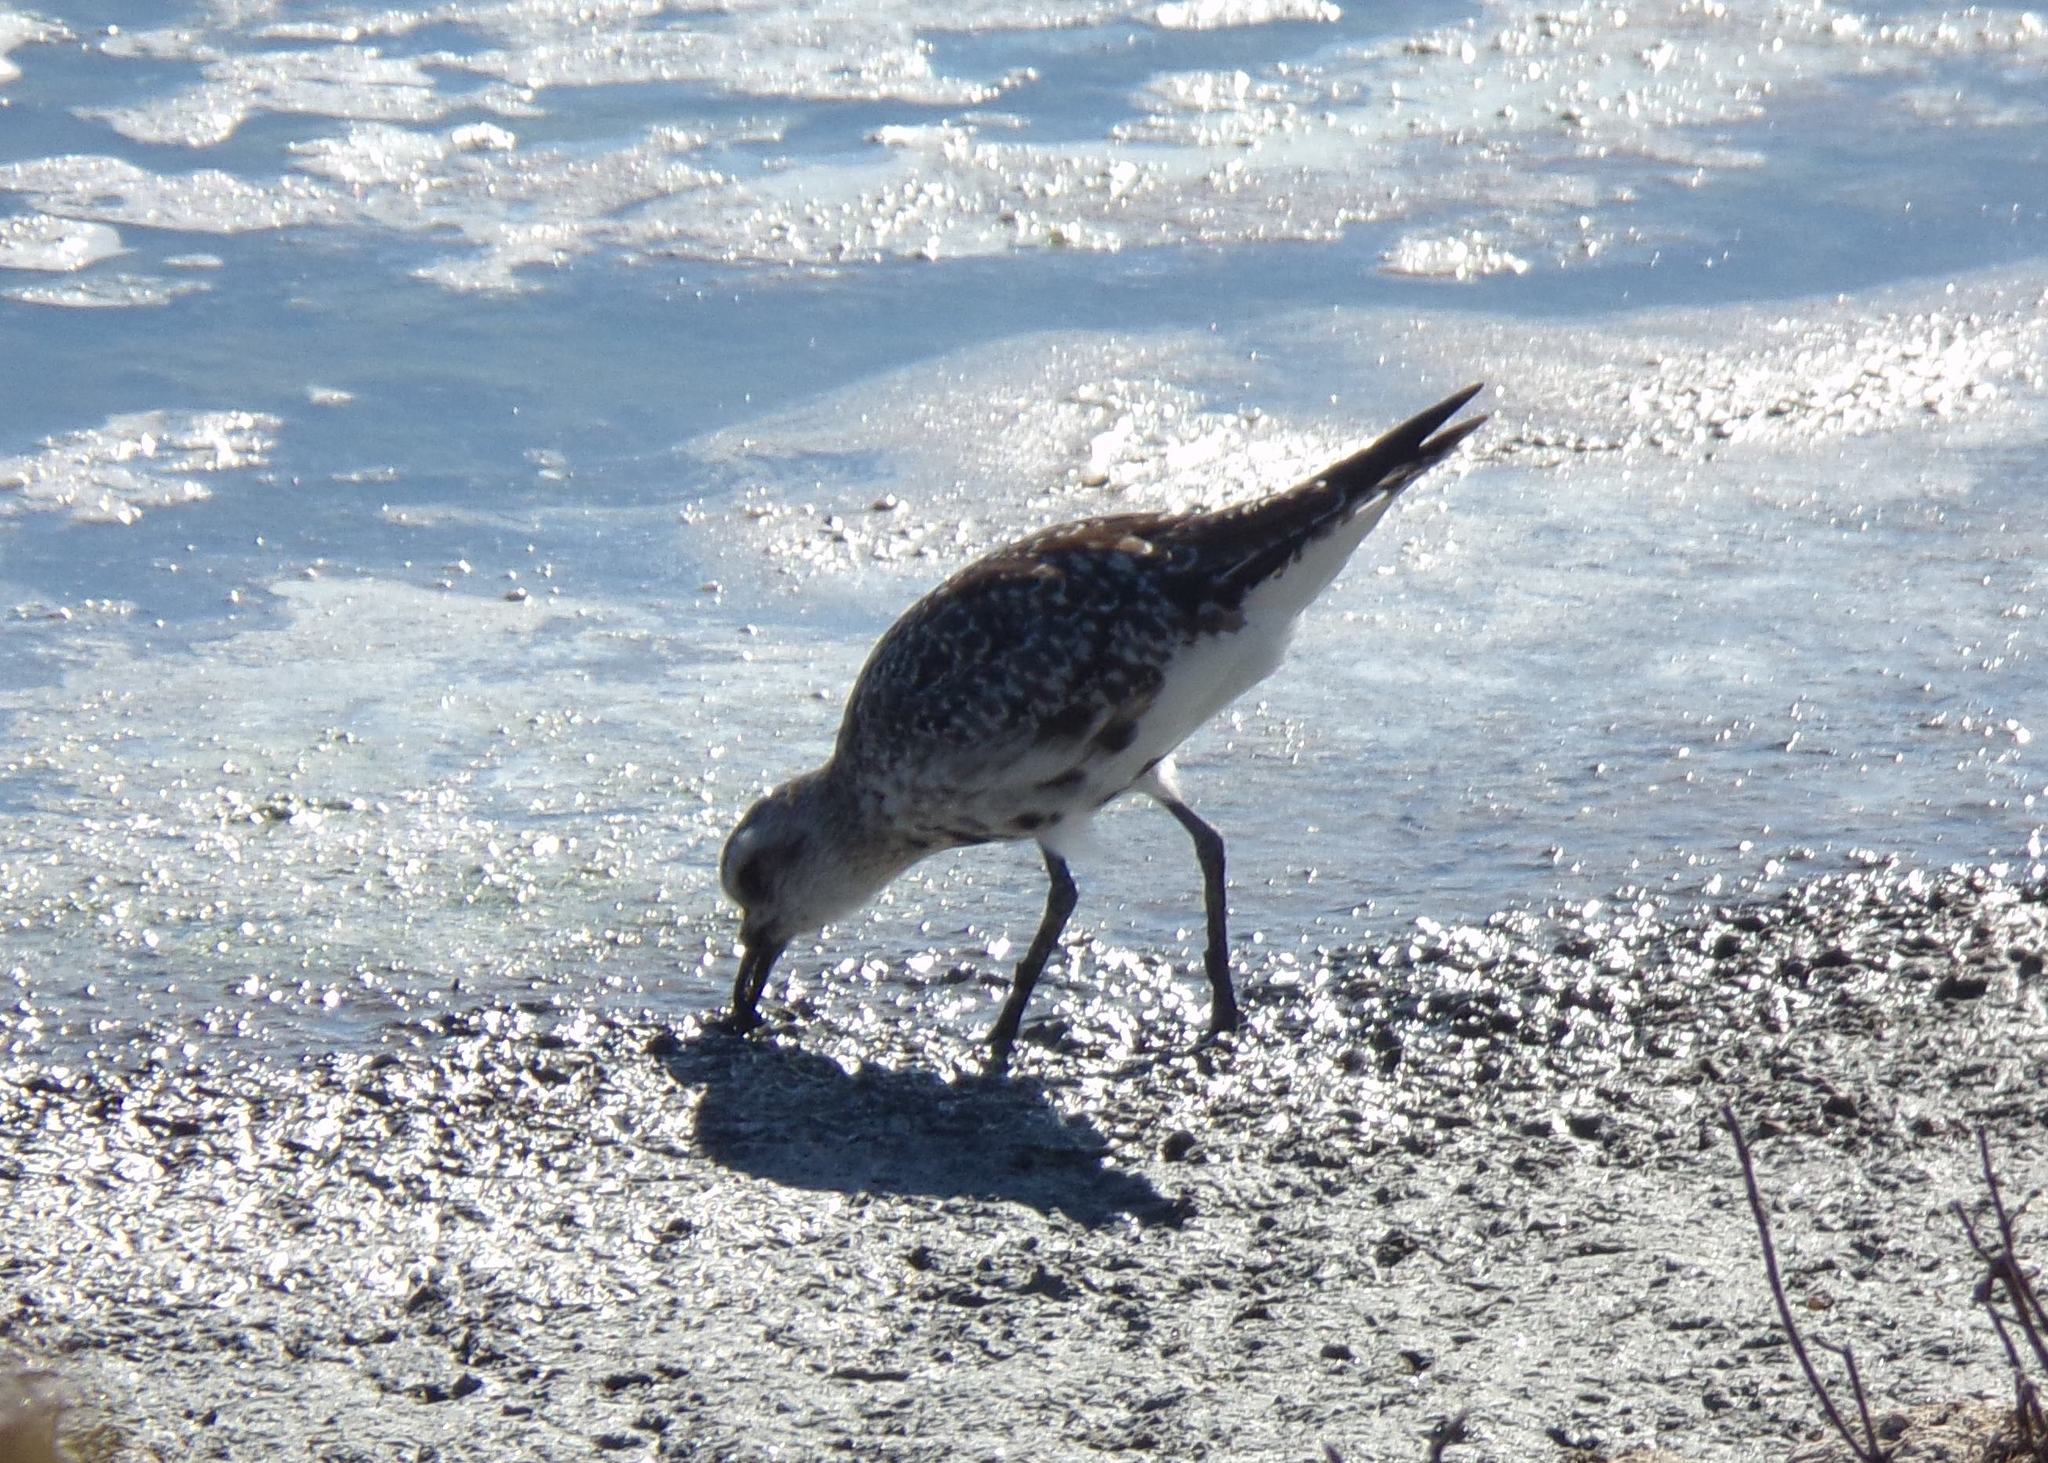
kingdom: Animalia
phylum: Chordata
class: Aves
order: Charadriiformes
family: Charadriidae
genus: Pluvialis
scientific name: Pluvialis squatarola
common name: Grey plover
